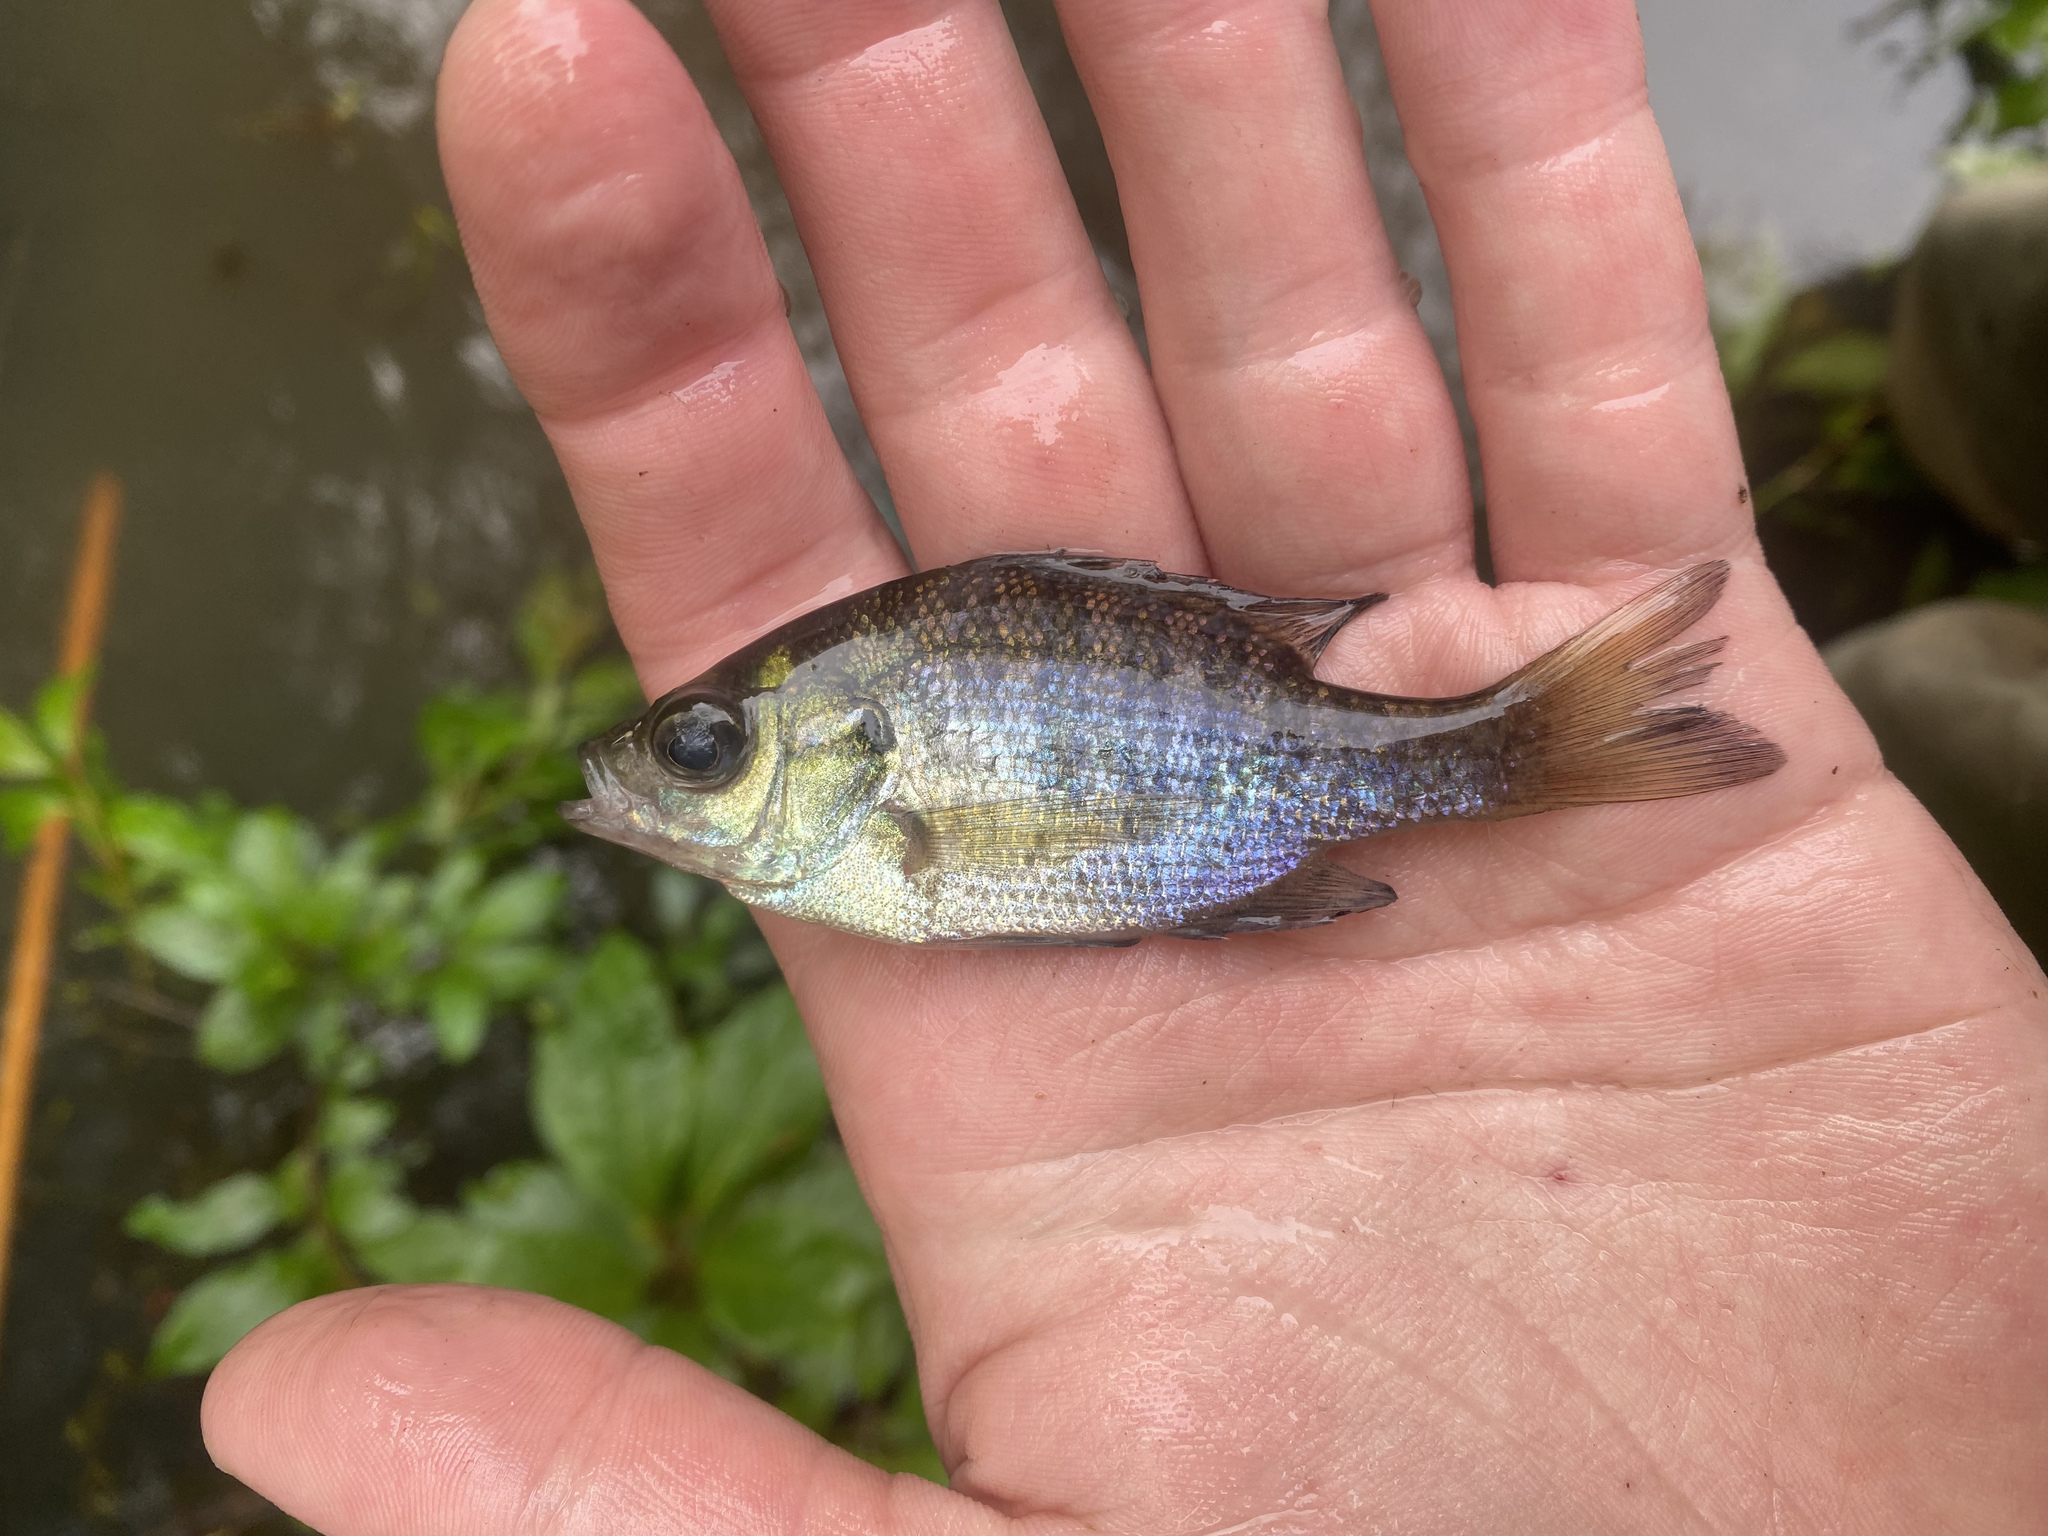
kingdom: Animalia
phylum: Chordata
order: Perciformes
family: Centrarchidae
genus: Lepomis
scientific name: Lepomis macrochirus
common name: Bluegill
